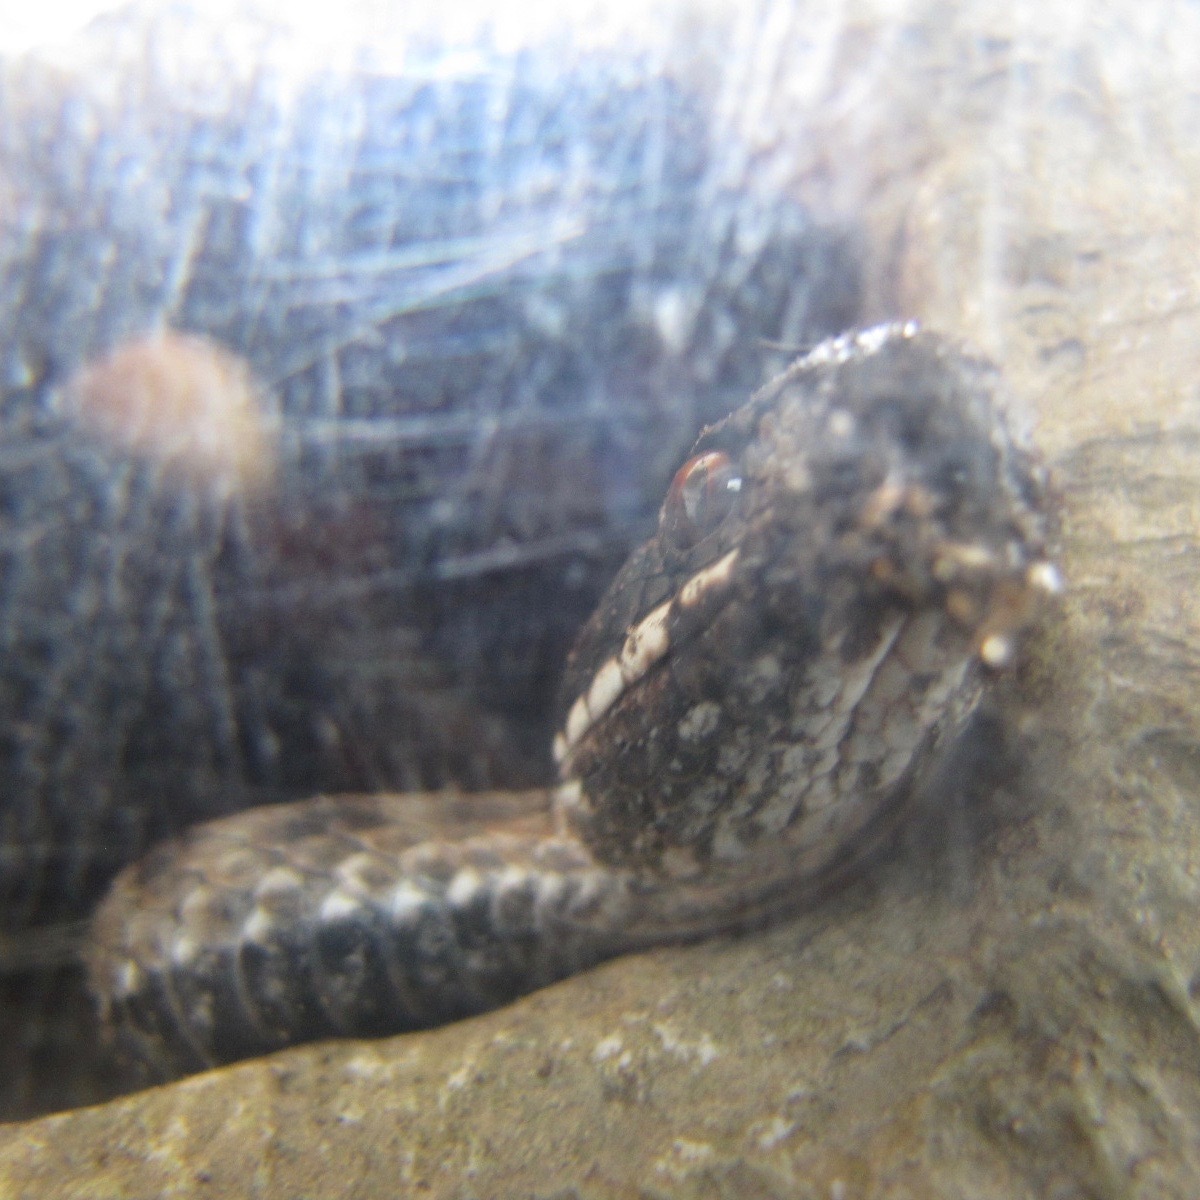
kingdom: Animalia
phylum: Chordata
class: Squamata
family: Viperidae
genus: Vipera
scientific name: Vipera berus
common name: Adder
